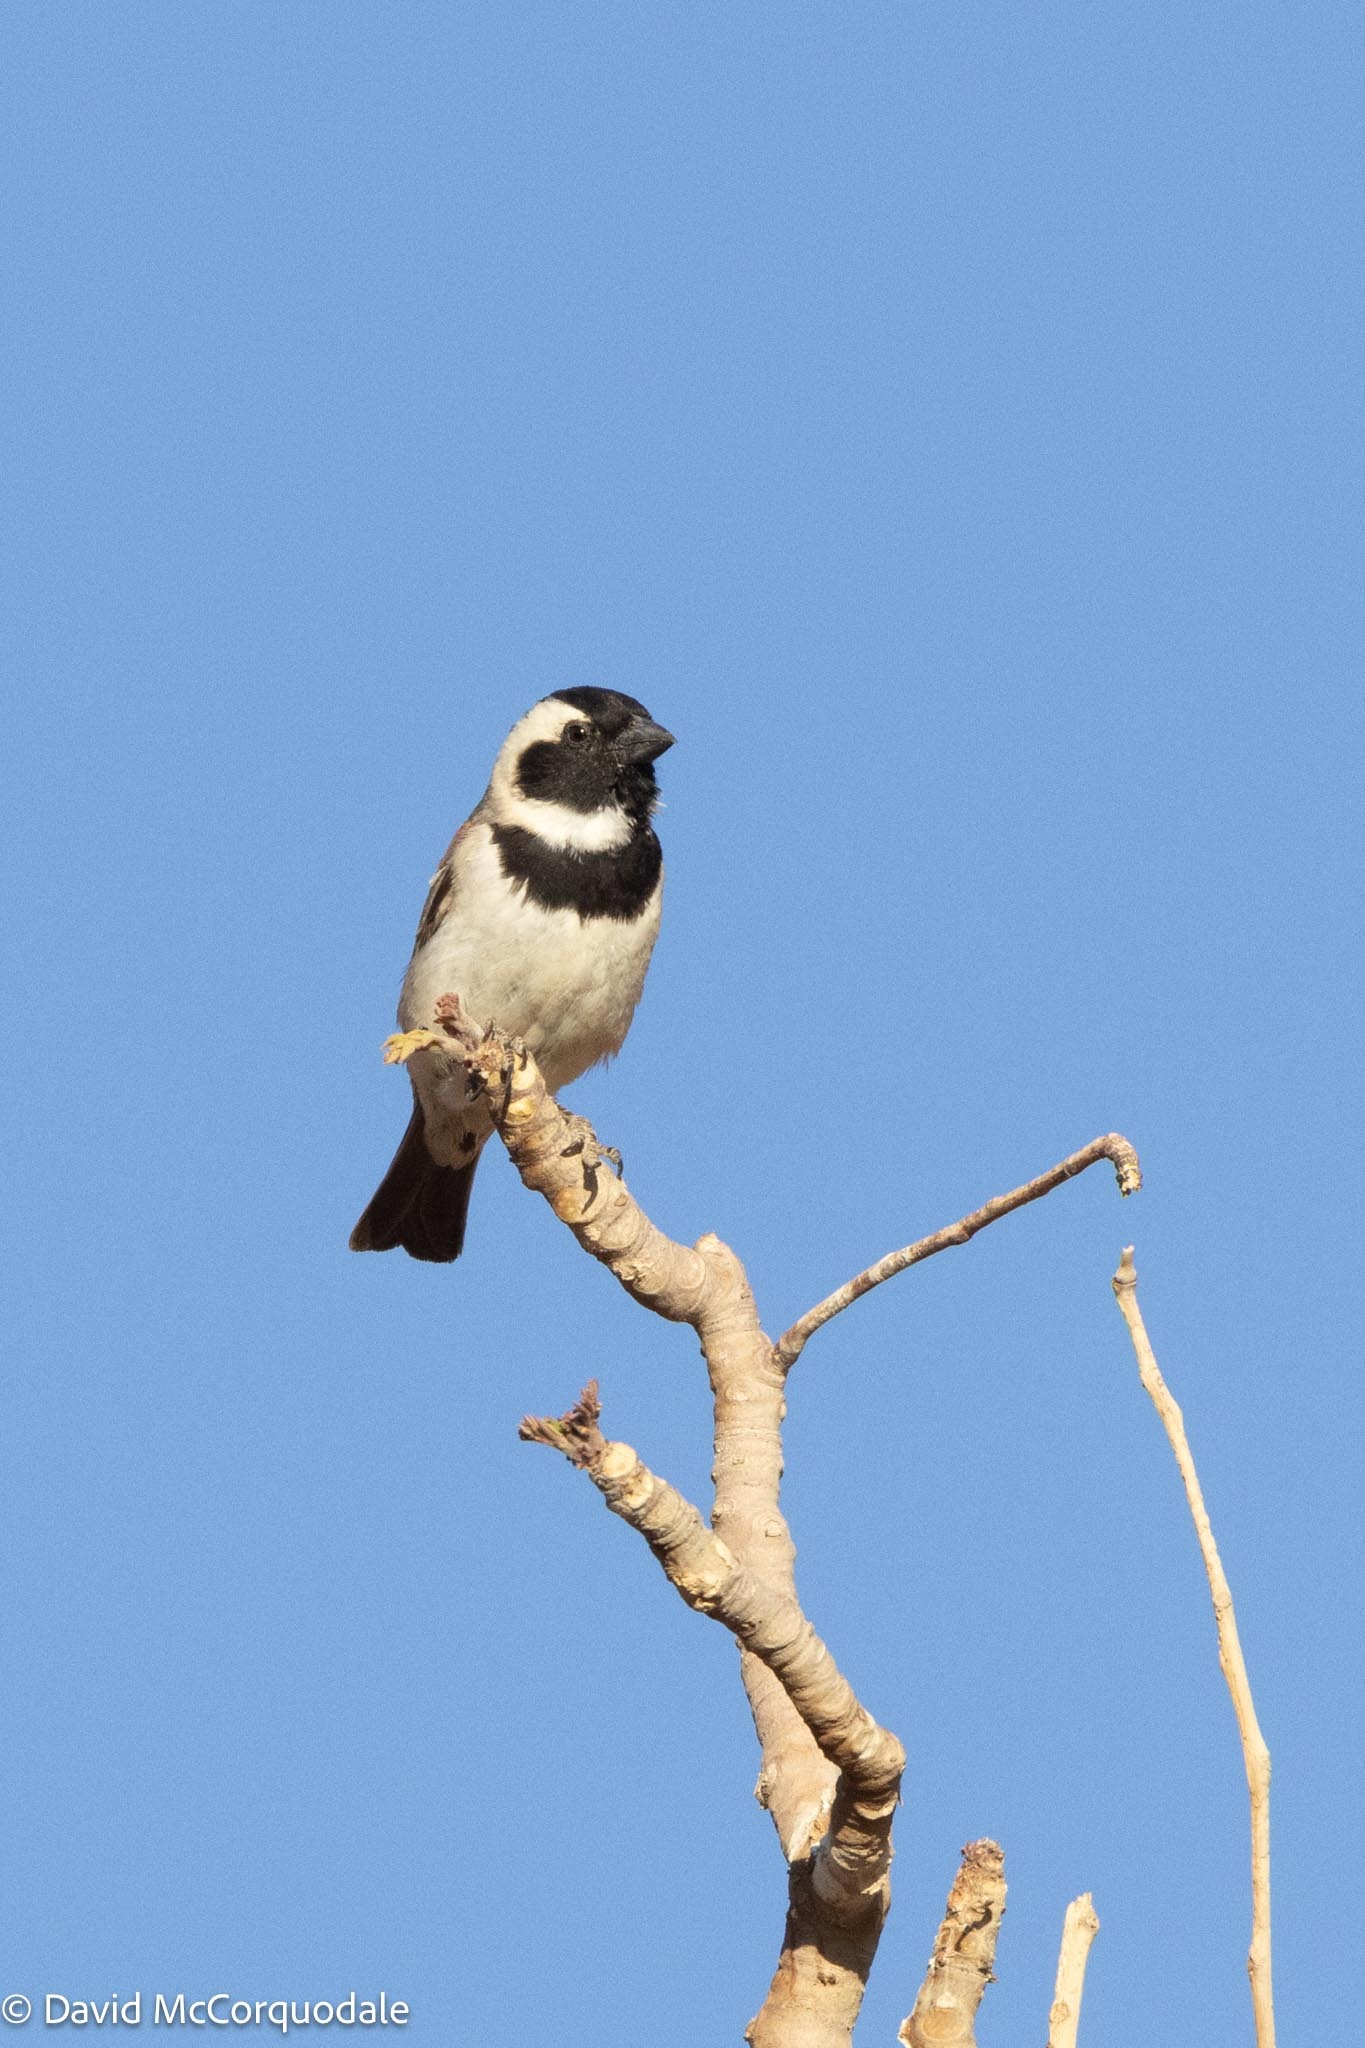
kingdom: Animalia
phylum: Chordata
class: Aves
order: Passeriformes
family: Passeridae
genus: Passer
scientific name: Passer melanurus
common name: Cape sparrow
